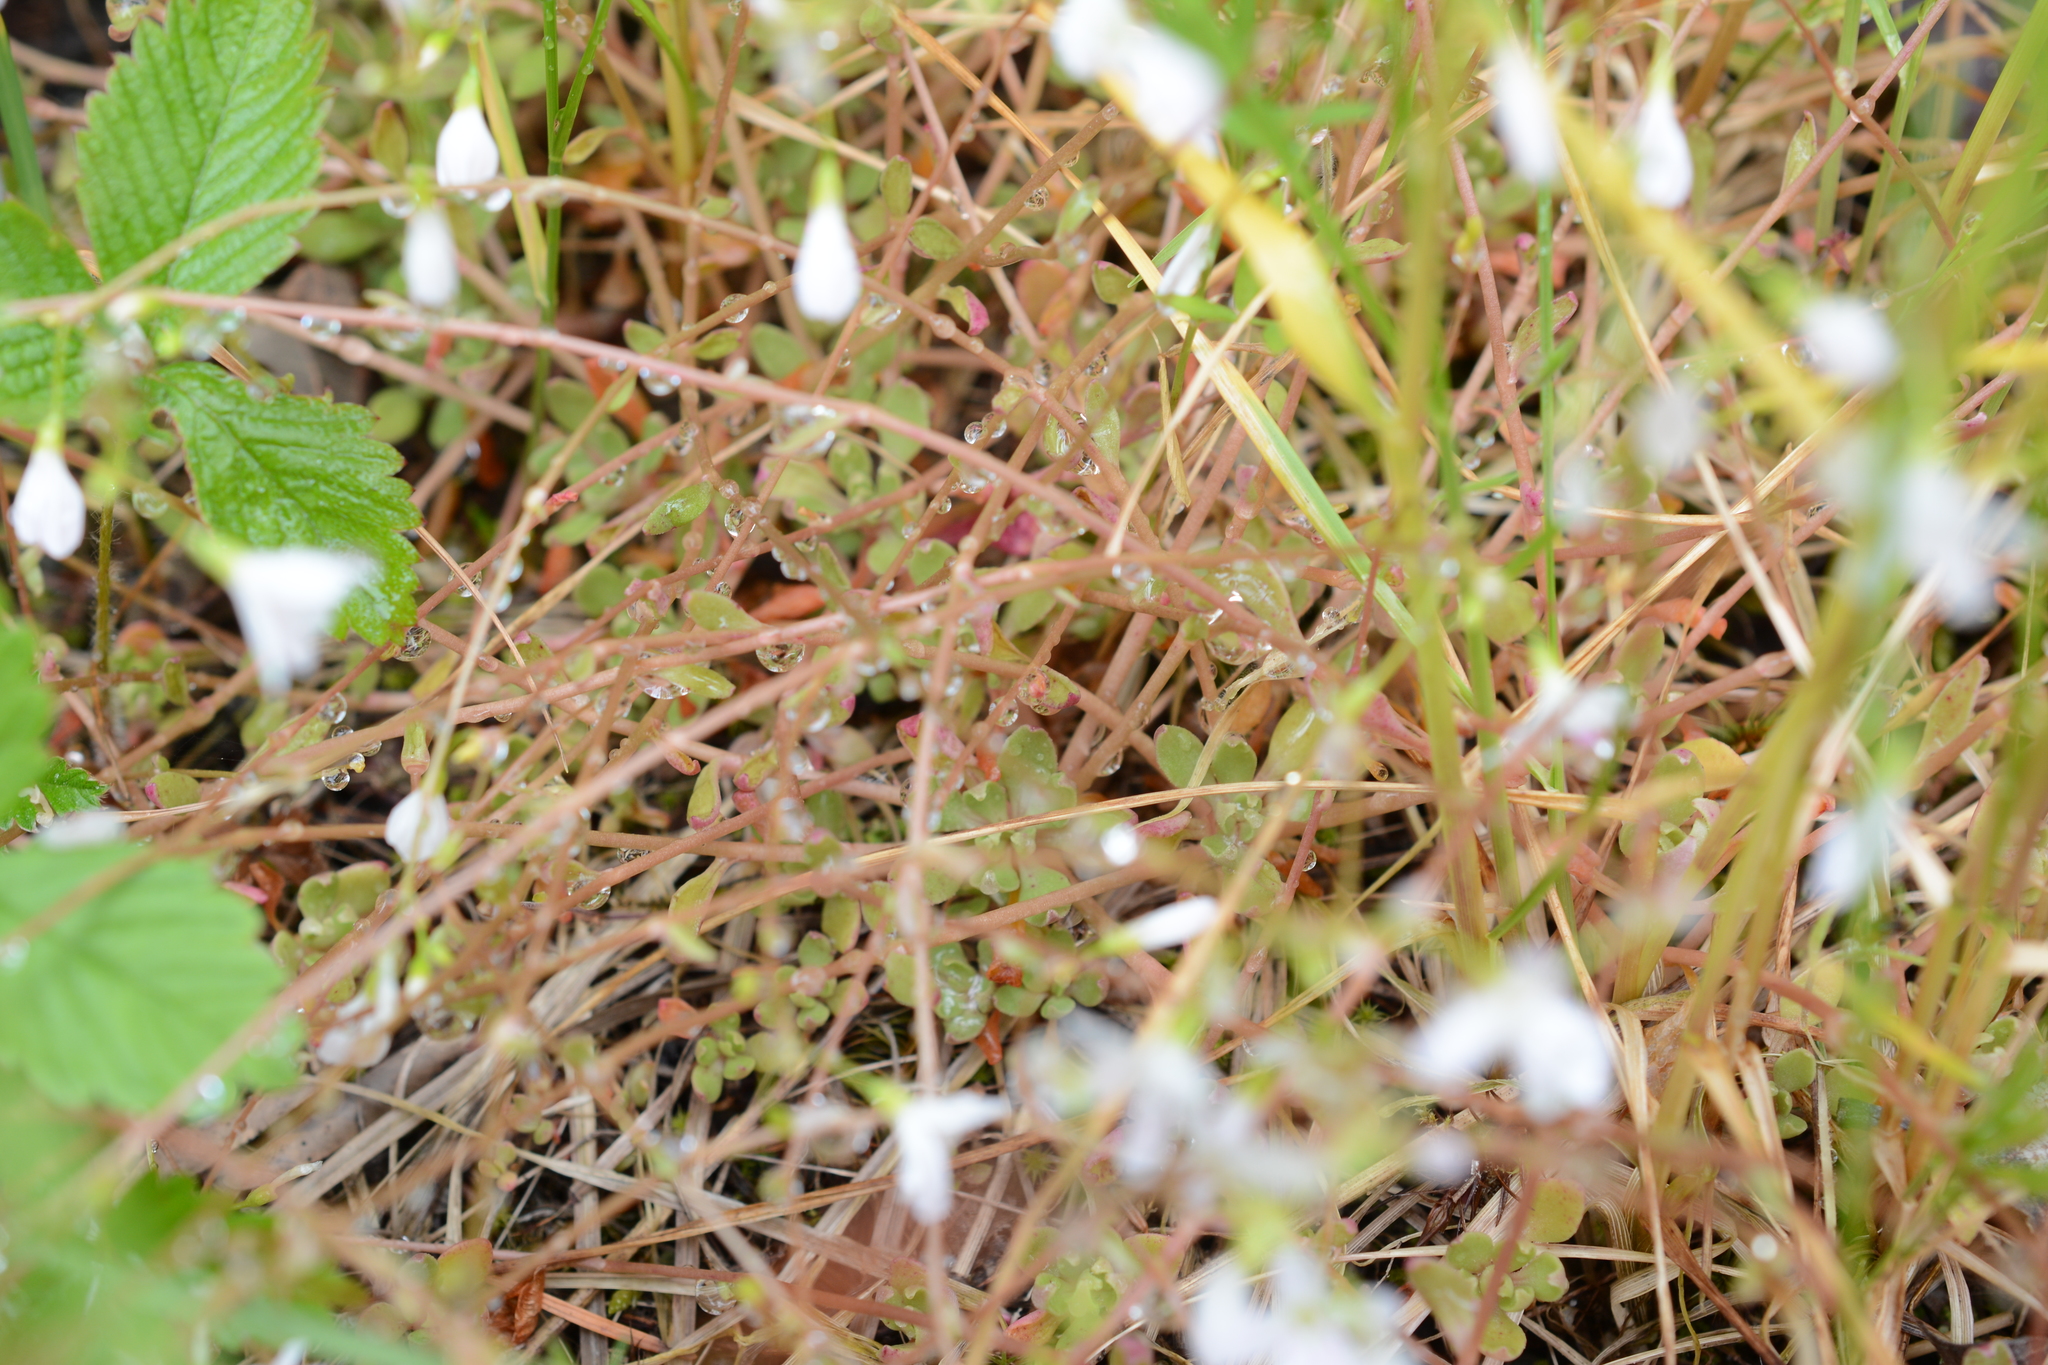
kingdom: Plantae
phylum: Tracheophyta
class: Magnoliopsida
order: Caryophyllales
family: Montiaceae
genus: Montia
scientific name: Montia parvifolia
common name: Small-leaved blinks
